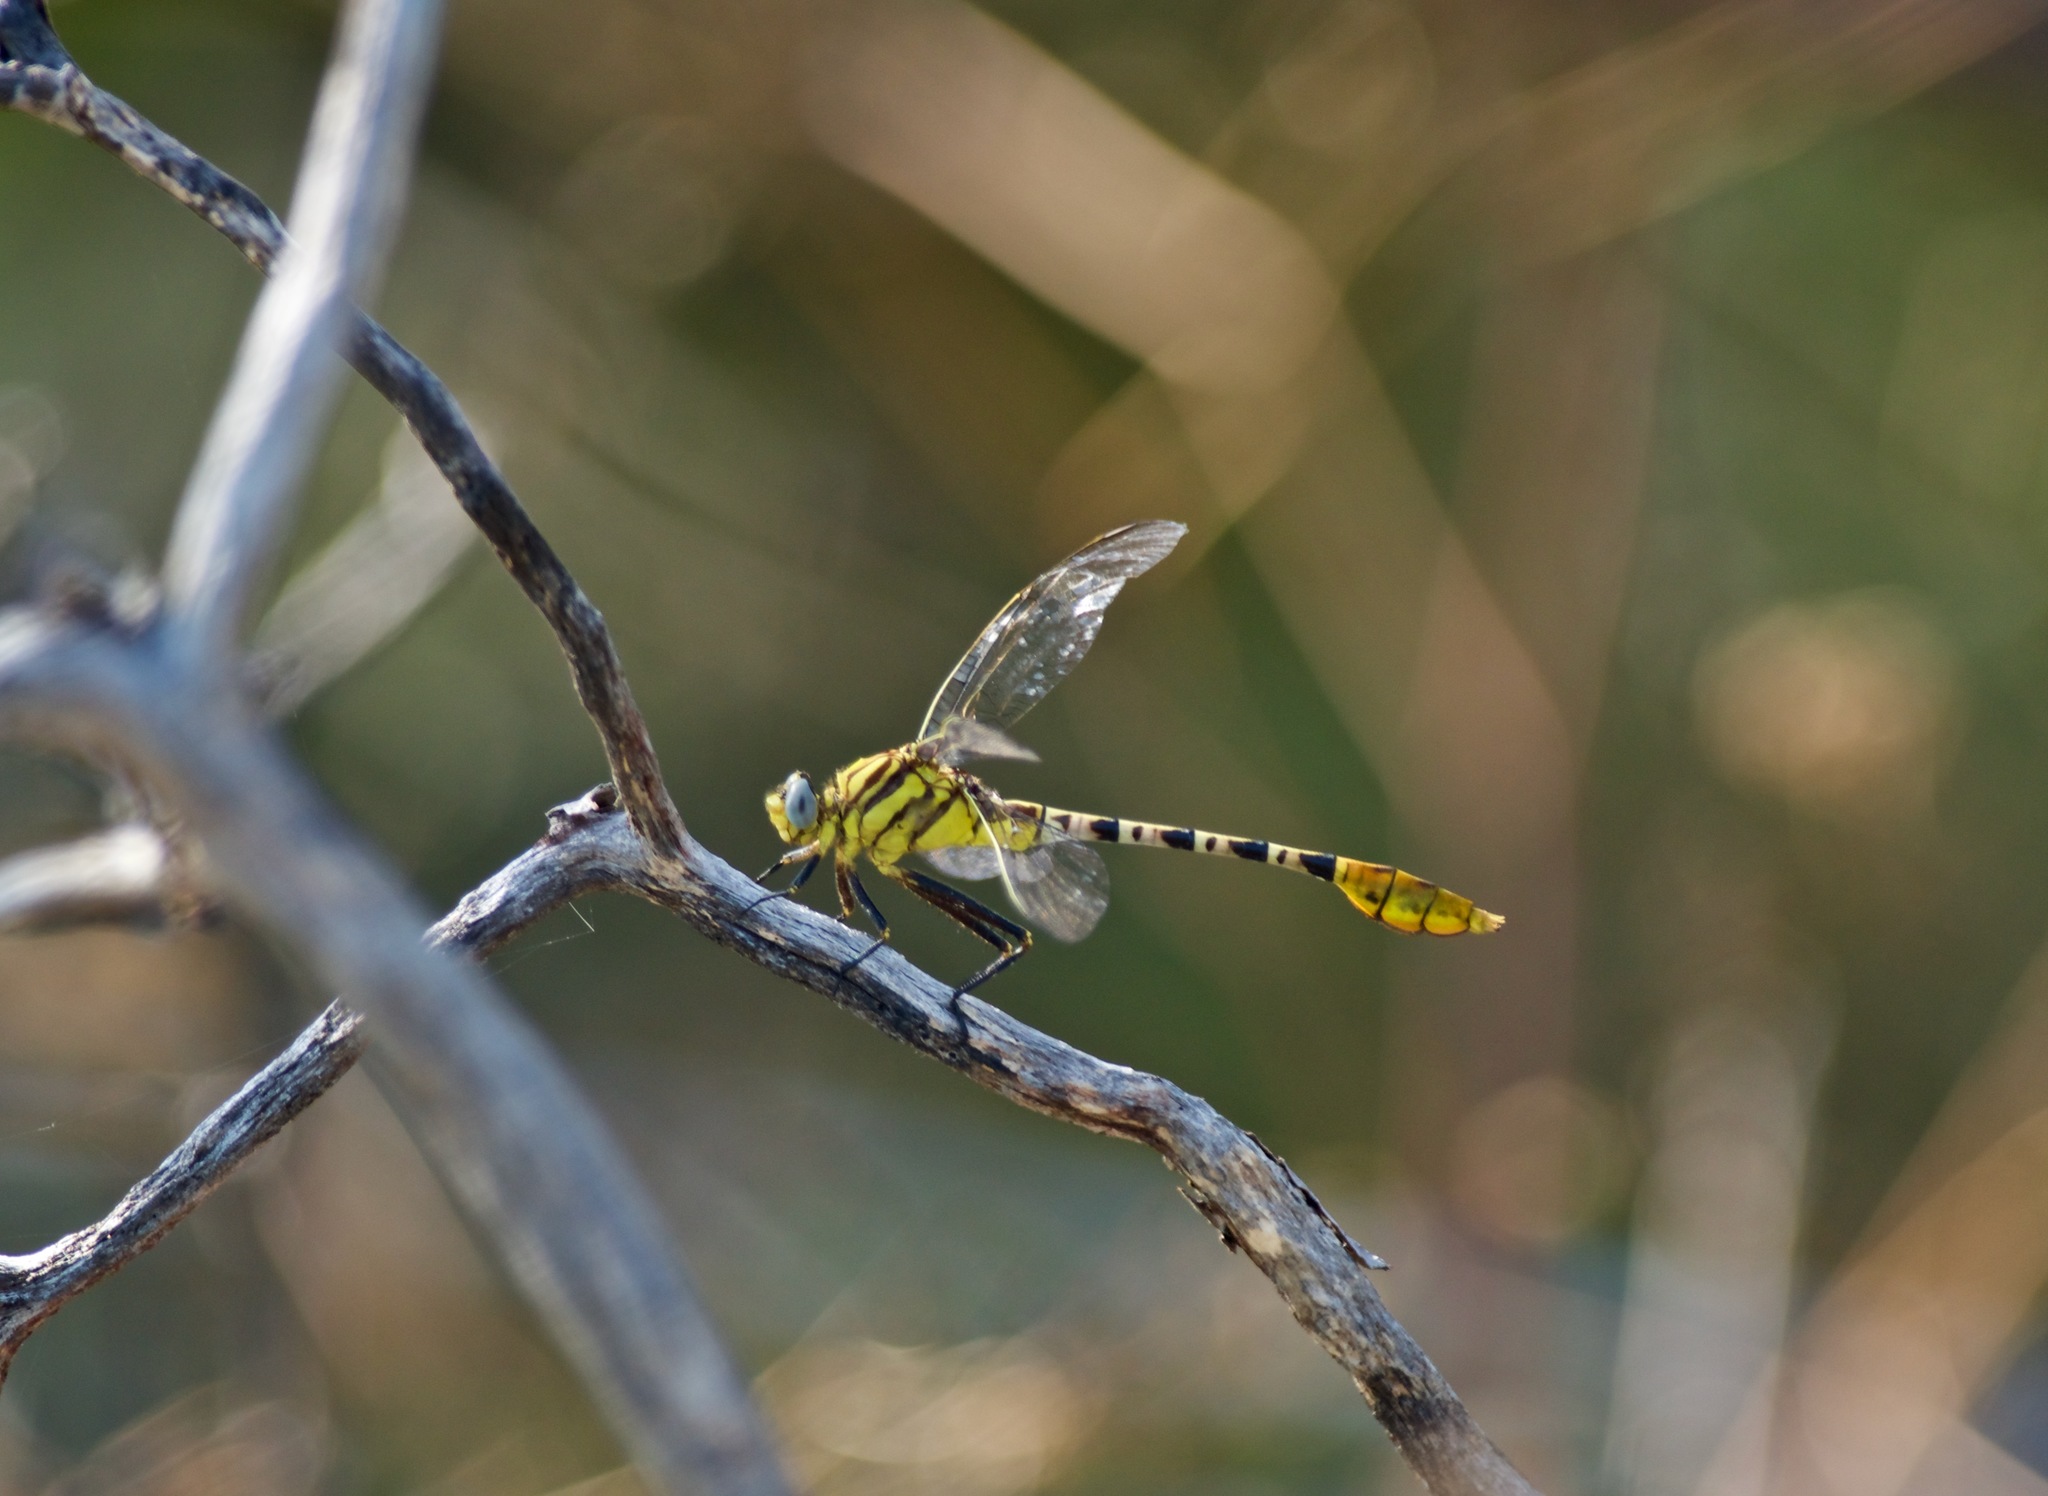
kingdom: Animalia
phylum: Arthropoda
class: Insecta
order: Odonata
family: Gomphidae
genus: Dromogomphus
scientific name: Dromogomphus spoliatus
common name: Flag-tailed spinyleg
